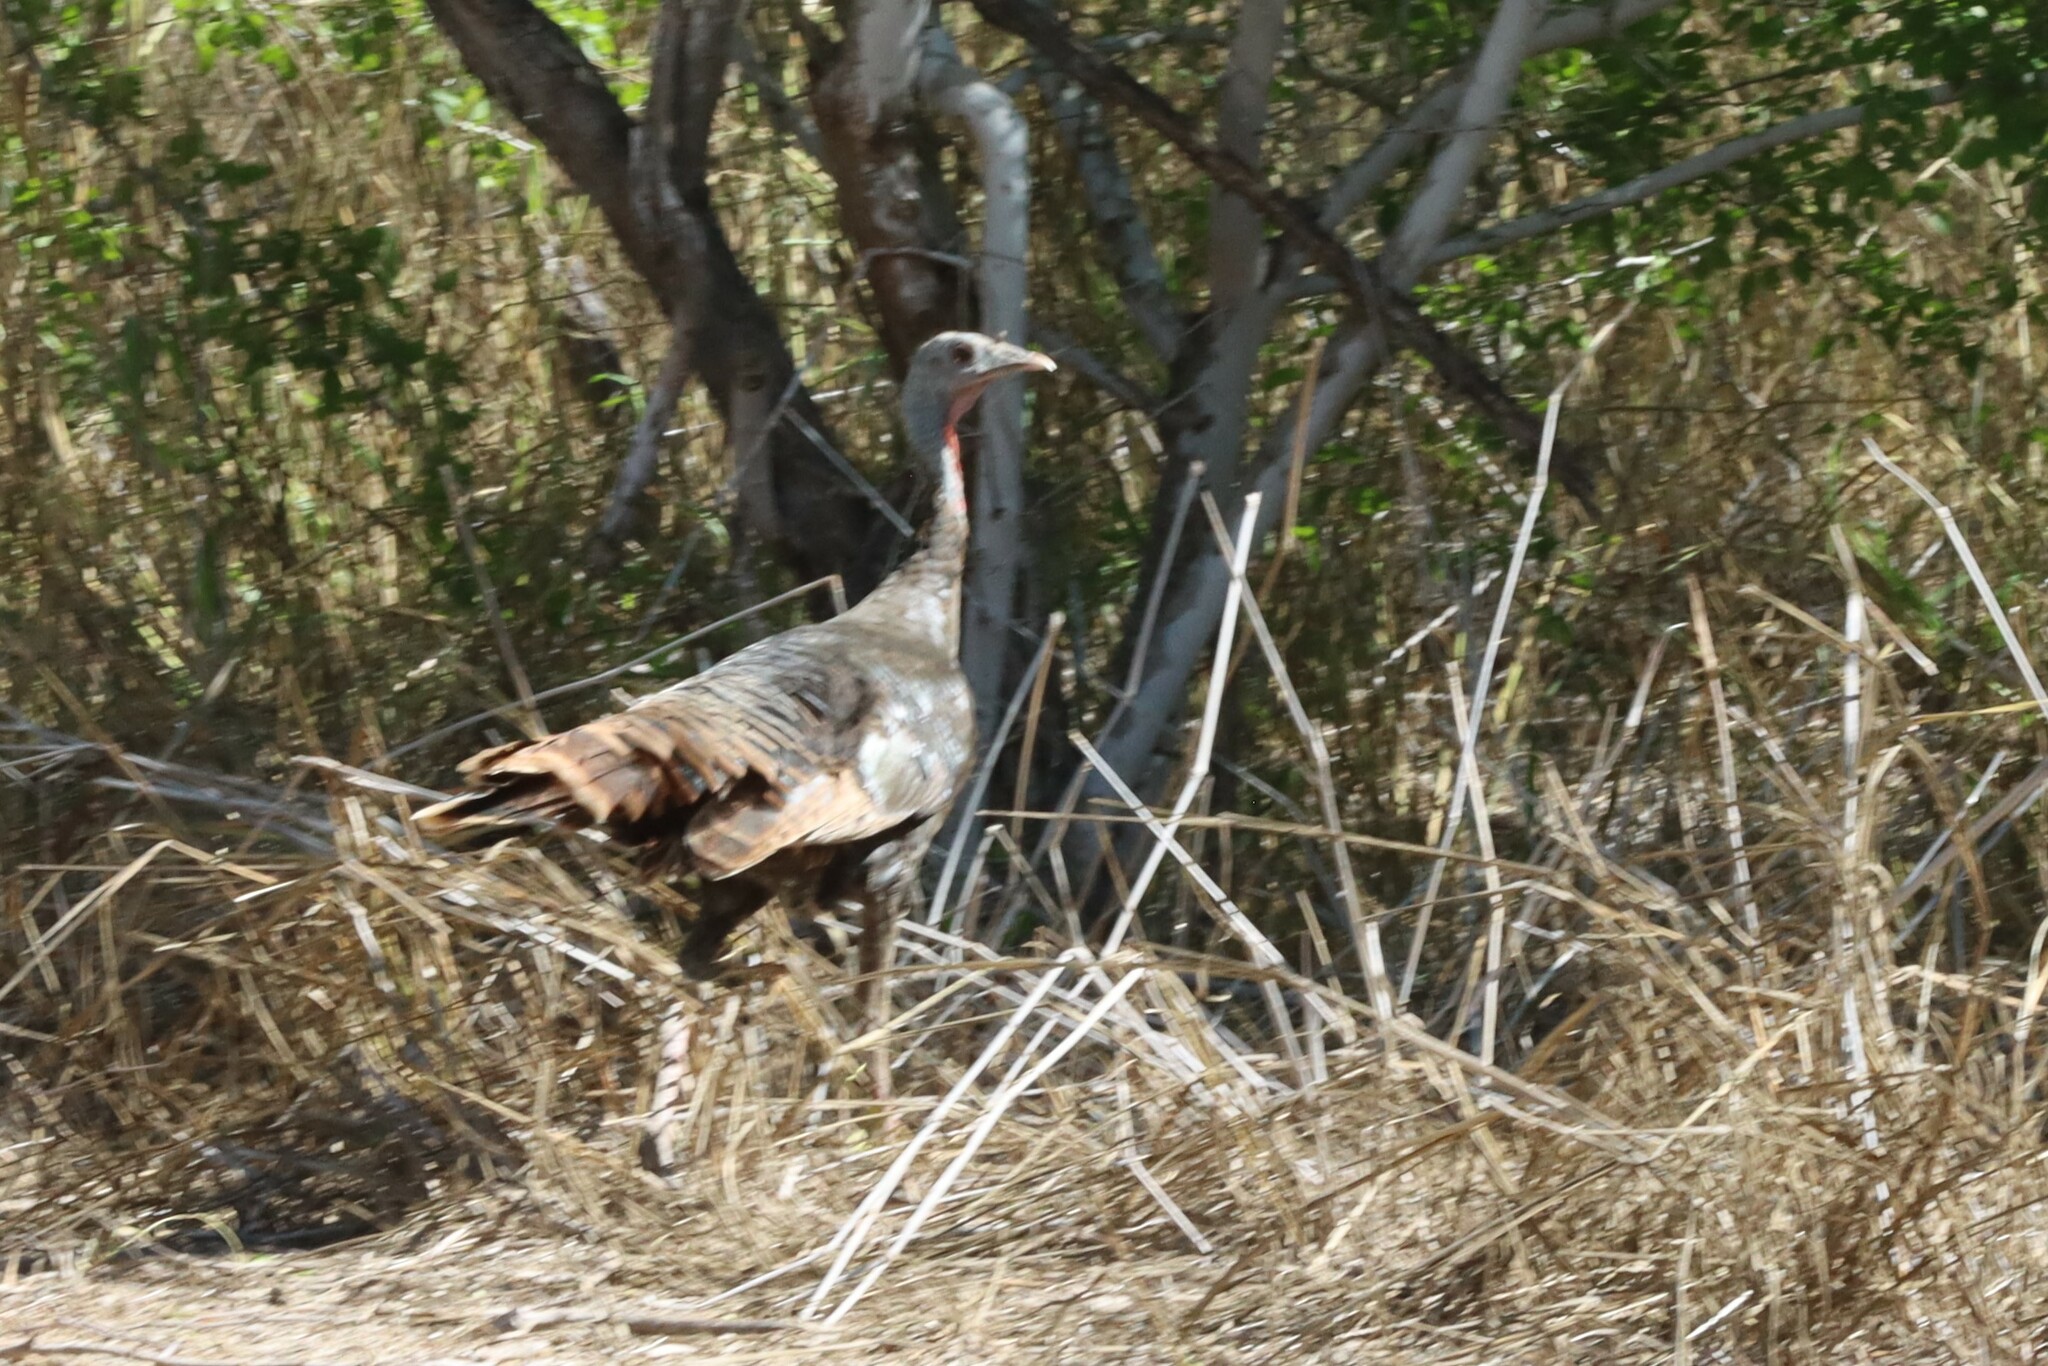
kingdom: Animalia
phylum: Chordata
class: Aves
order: Galliformes
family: Phasianidae
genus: Meleagris
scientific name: Meleagris gallopavo
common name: Wild turkey
